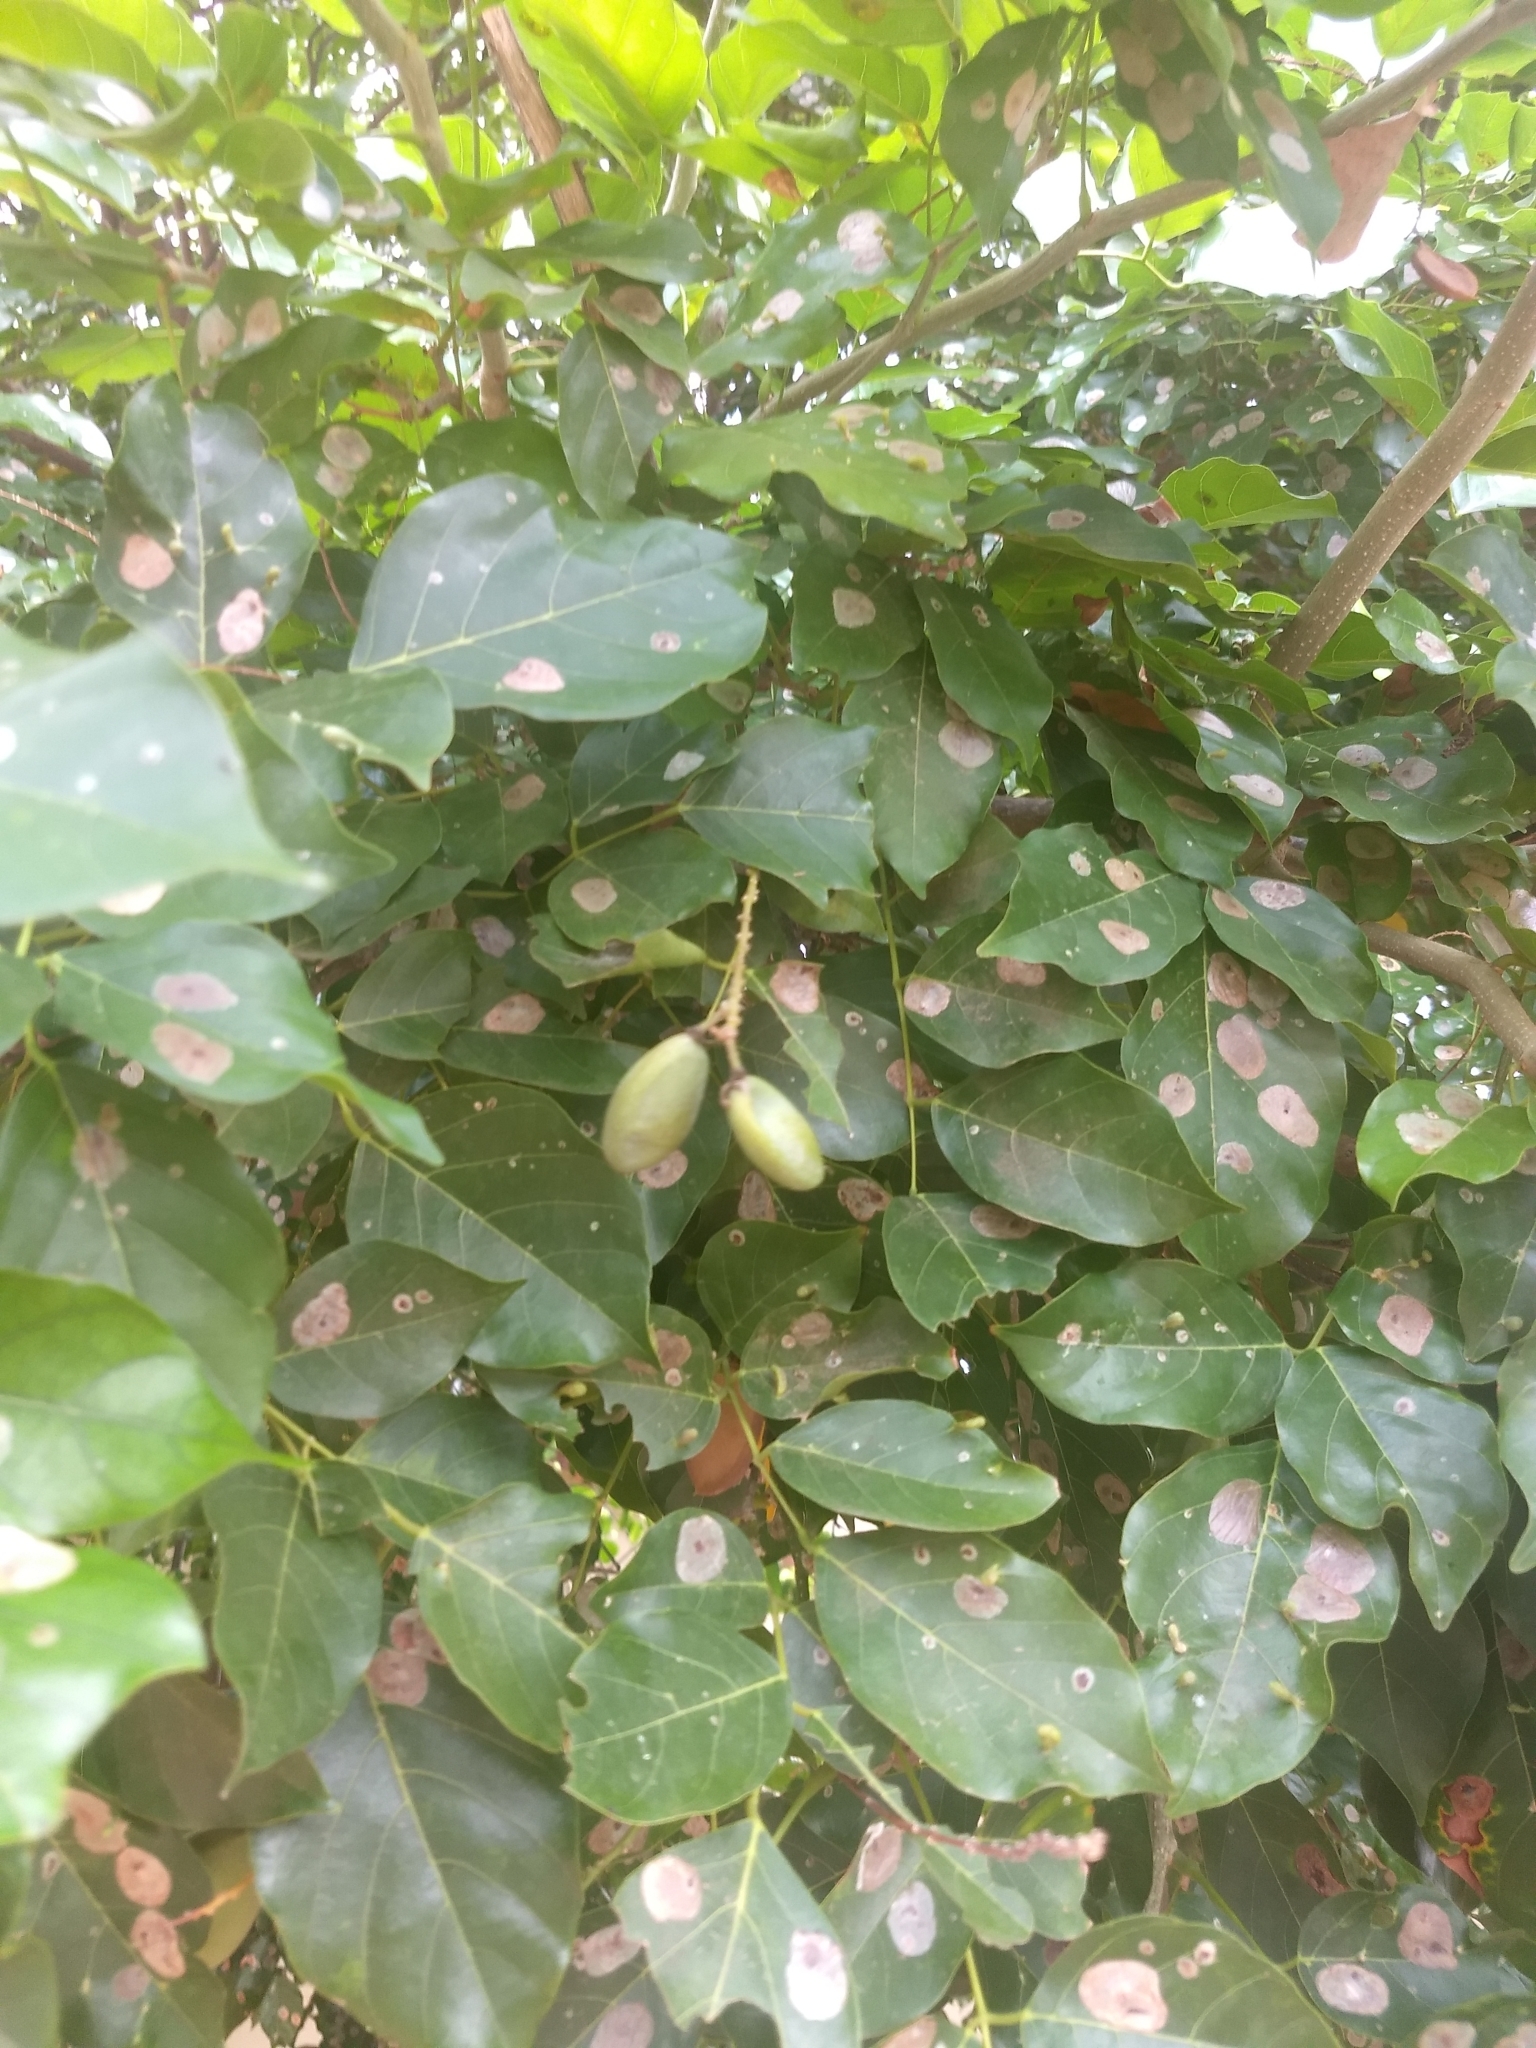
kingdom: Plantae
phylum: Tracheophyta
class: Magnoliopsida
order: Fabales
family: Fabaceae
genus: Pongamia
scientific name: Pongamia pinnata
